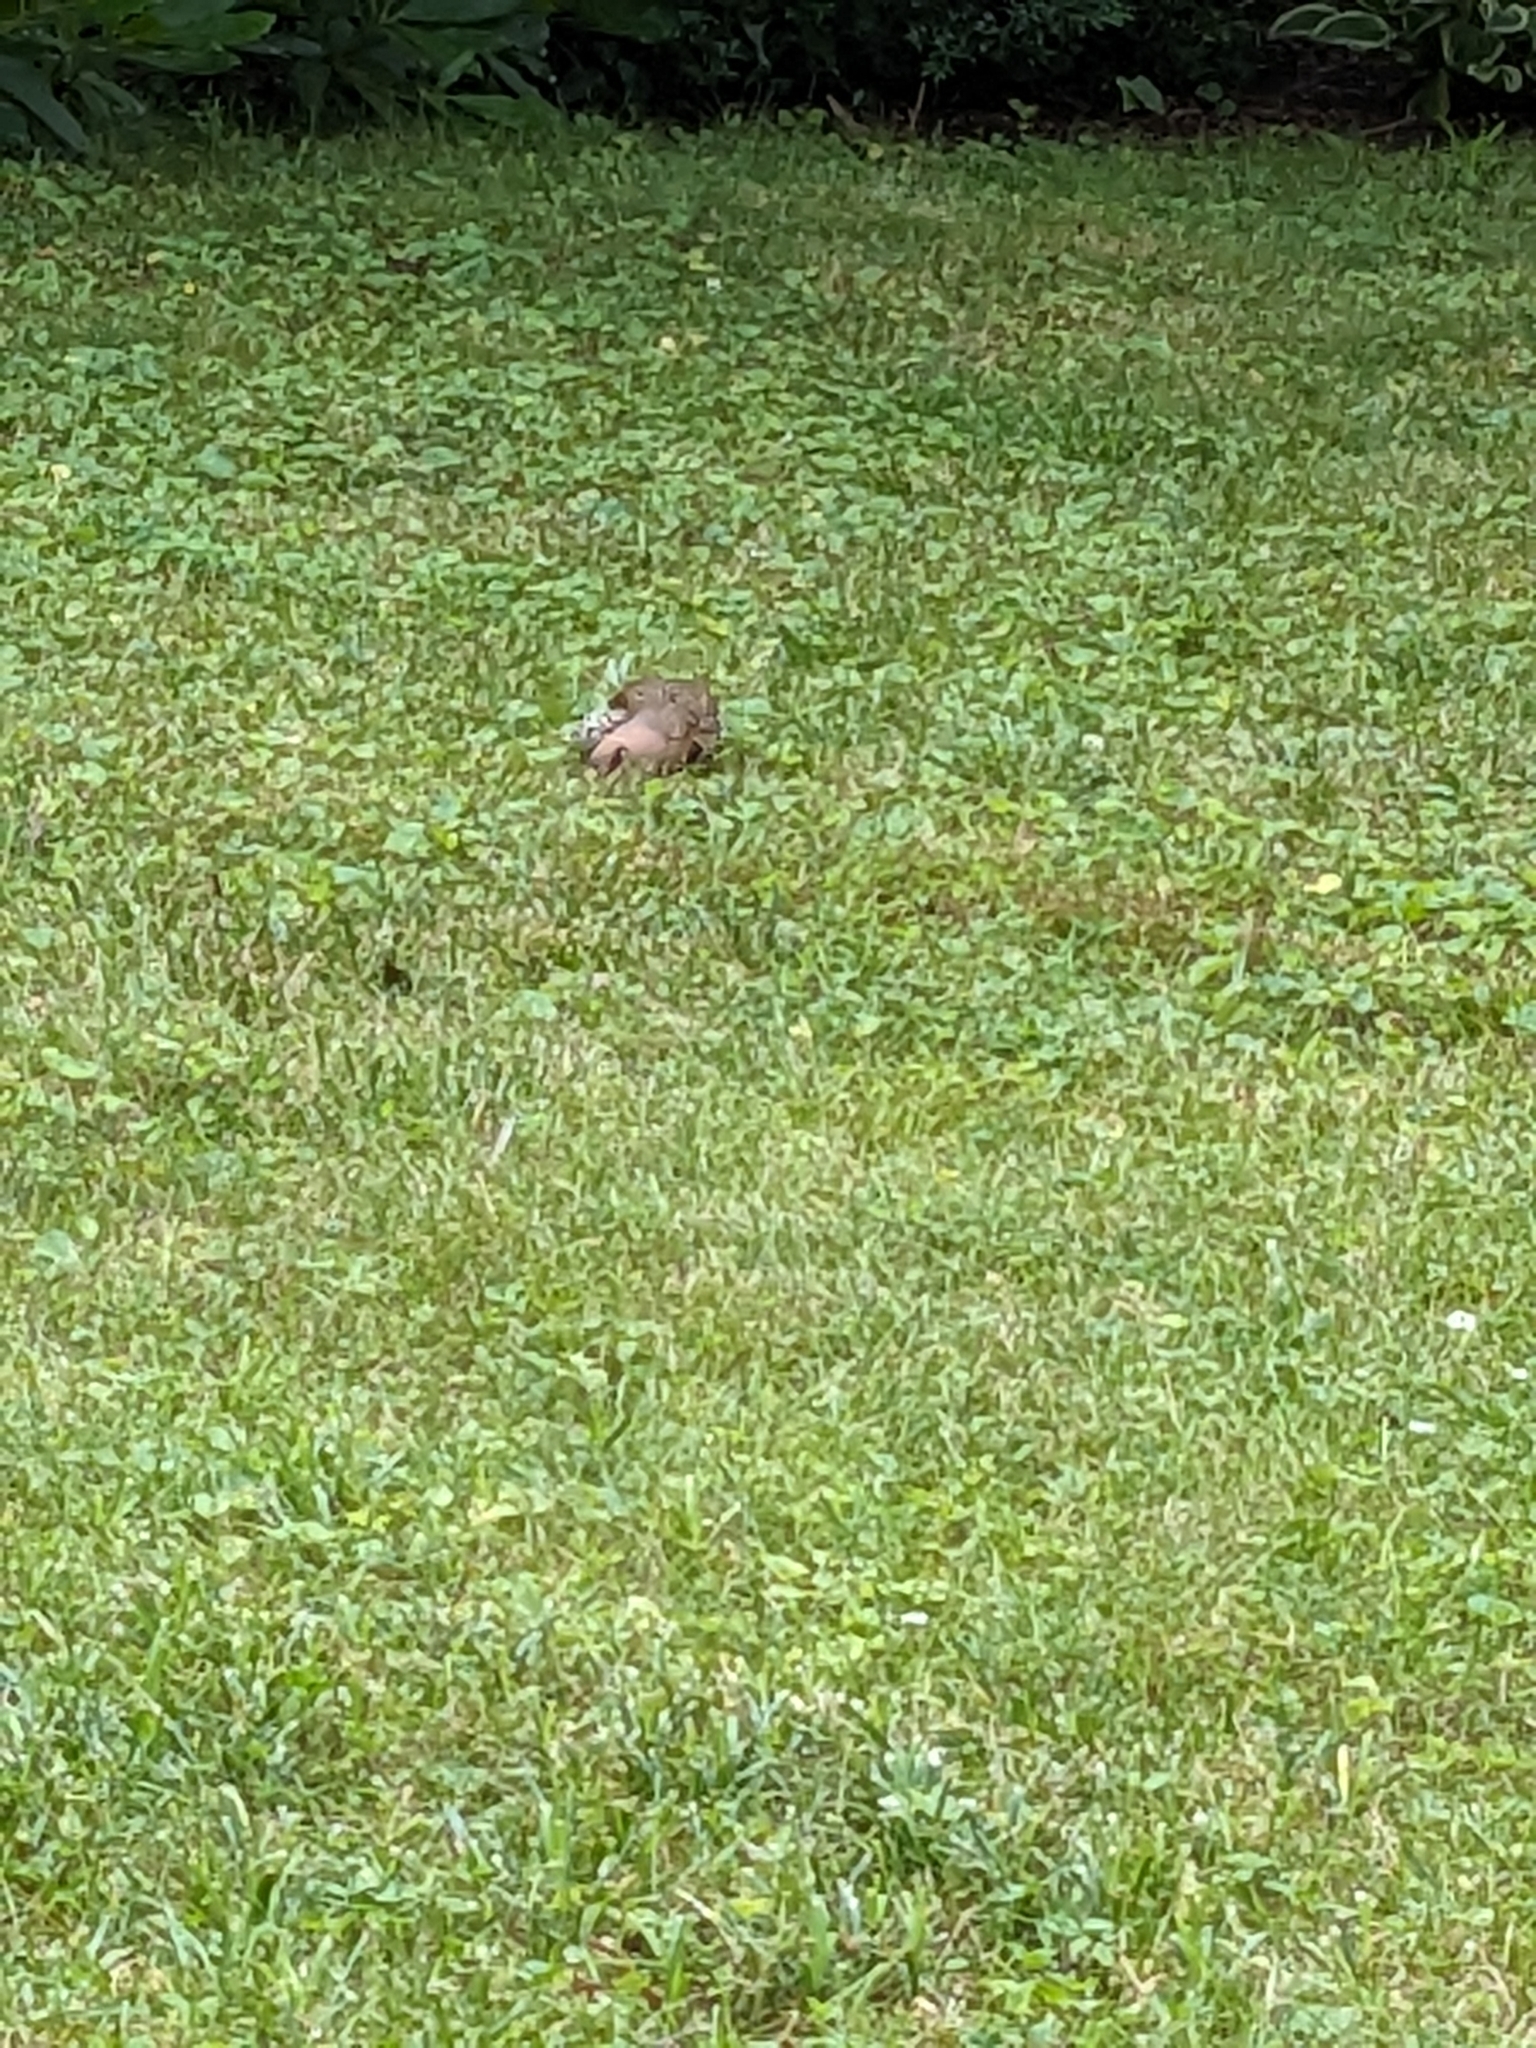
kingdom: Animalia
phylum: Chordata
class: Aves
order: Piciformes
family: Picidae
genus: Colaptes
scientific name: Colaptes auratus
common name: Northern flicker
